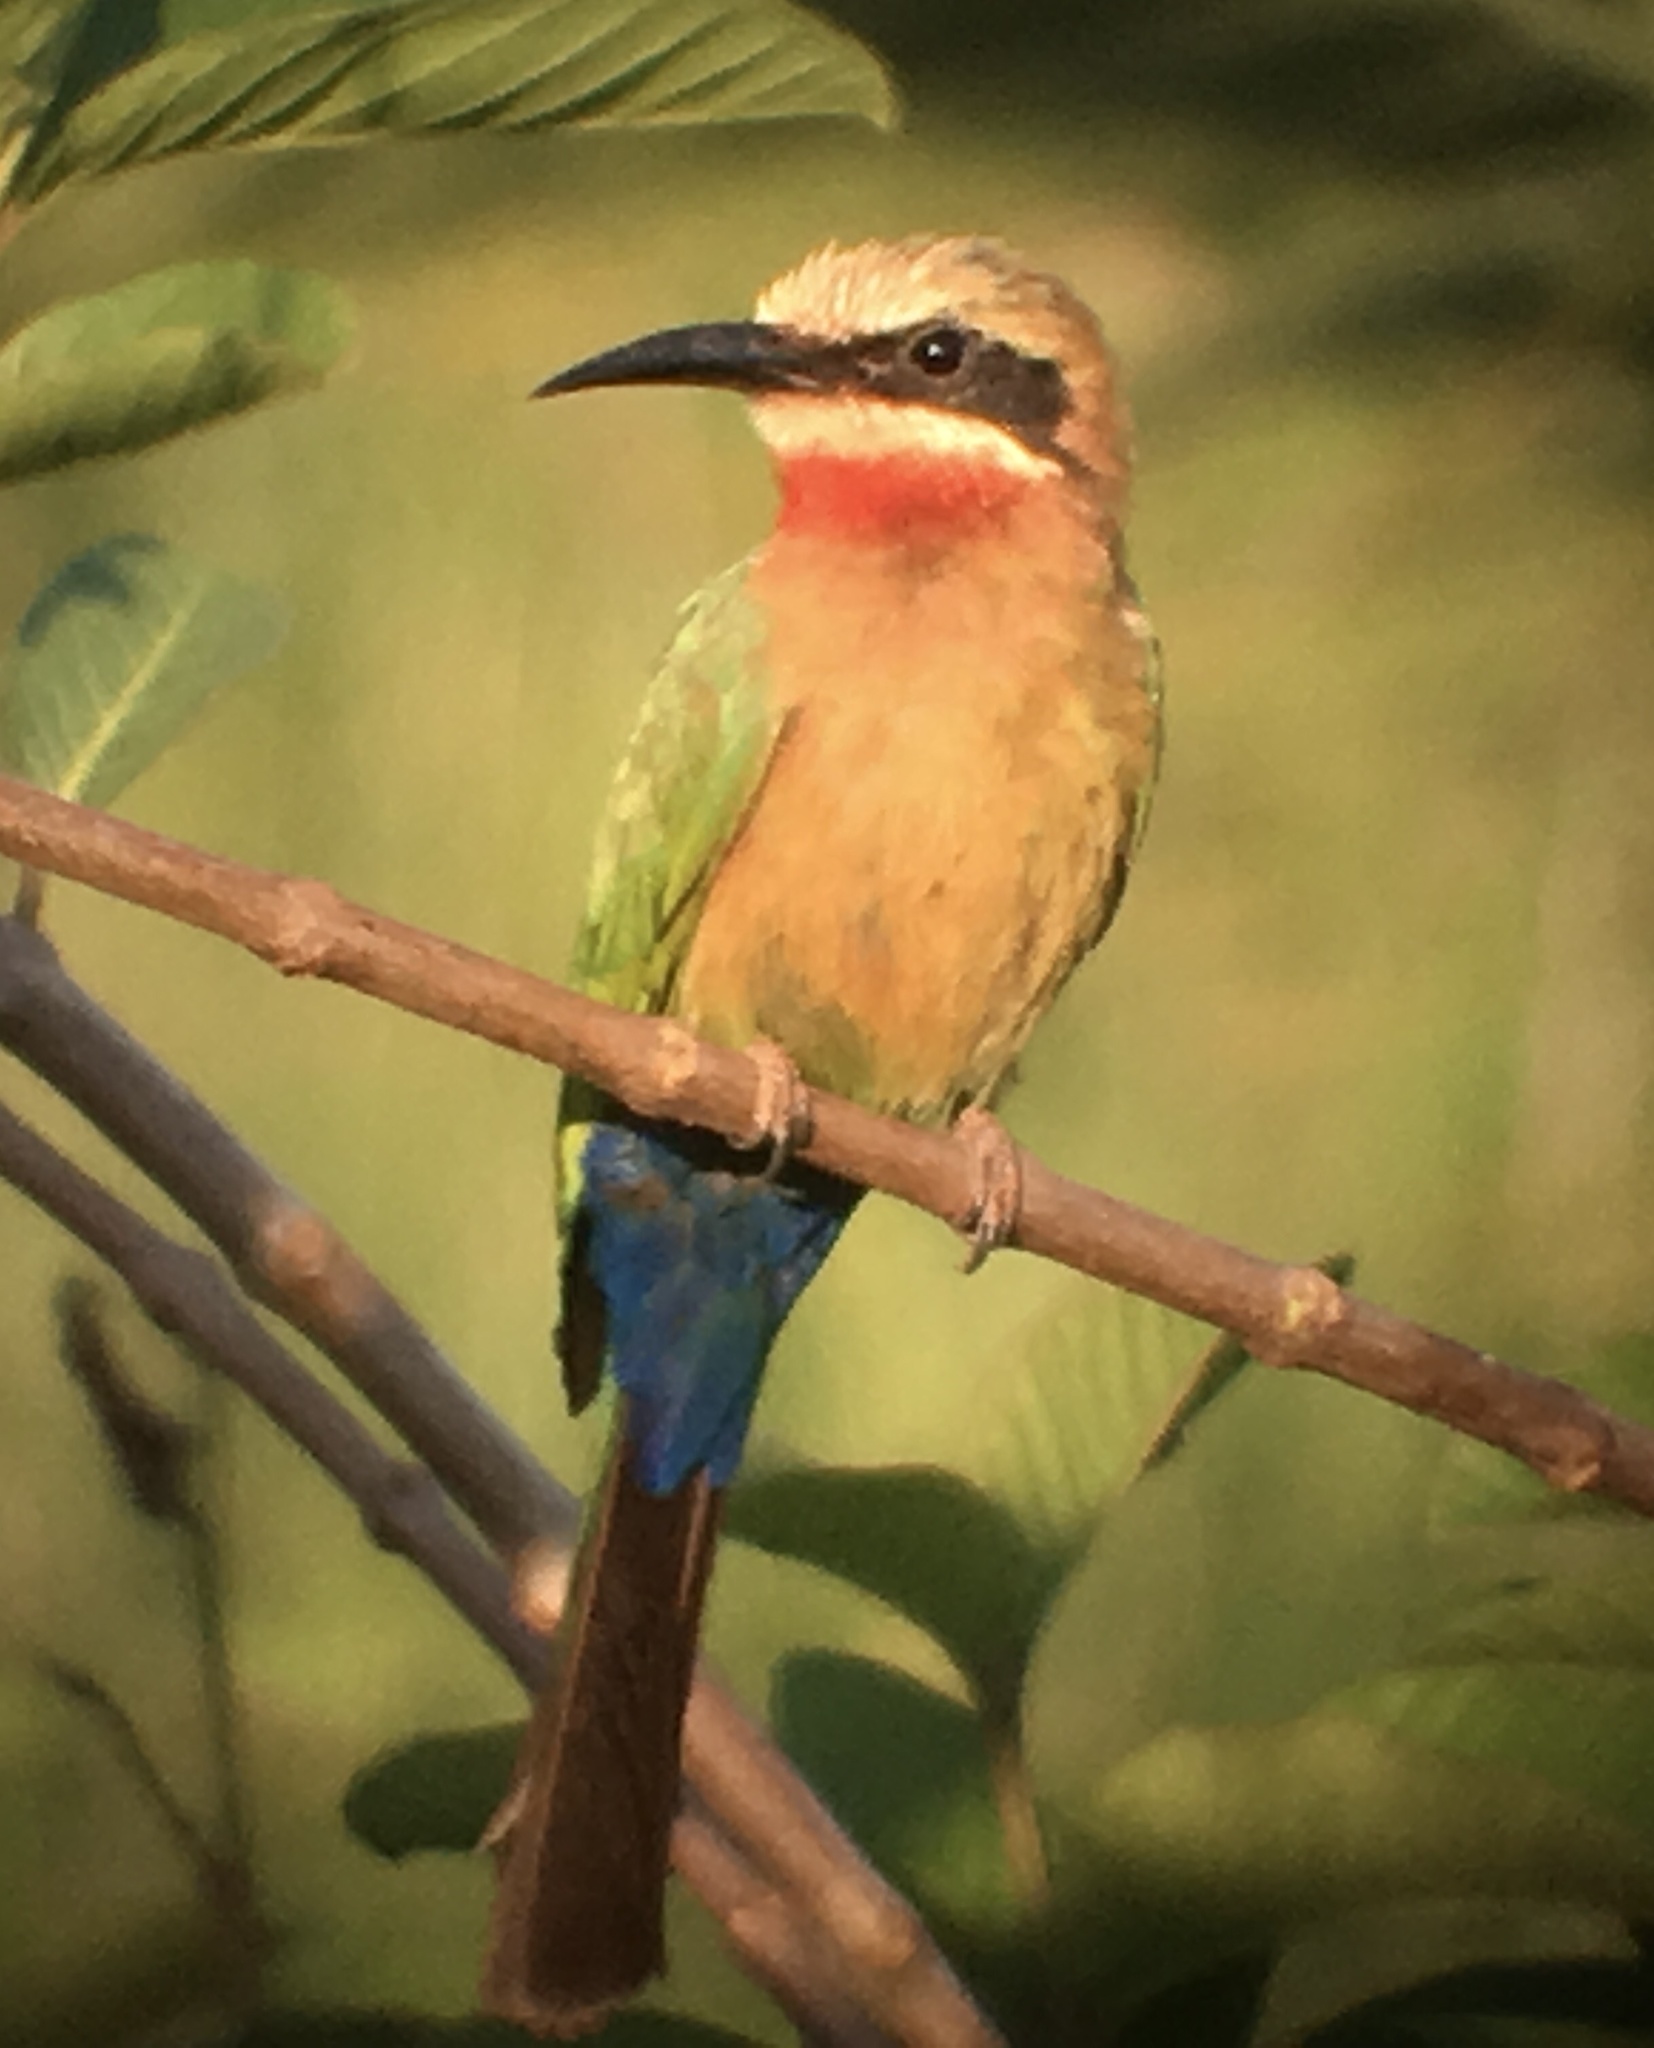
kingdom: Animalia
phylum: Chordata
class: Aves
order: Coraciiformes
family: Meropidae
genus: Merops
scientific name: Merops bullockoides
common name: White-fronted bee-eater
